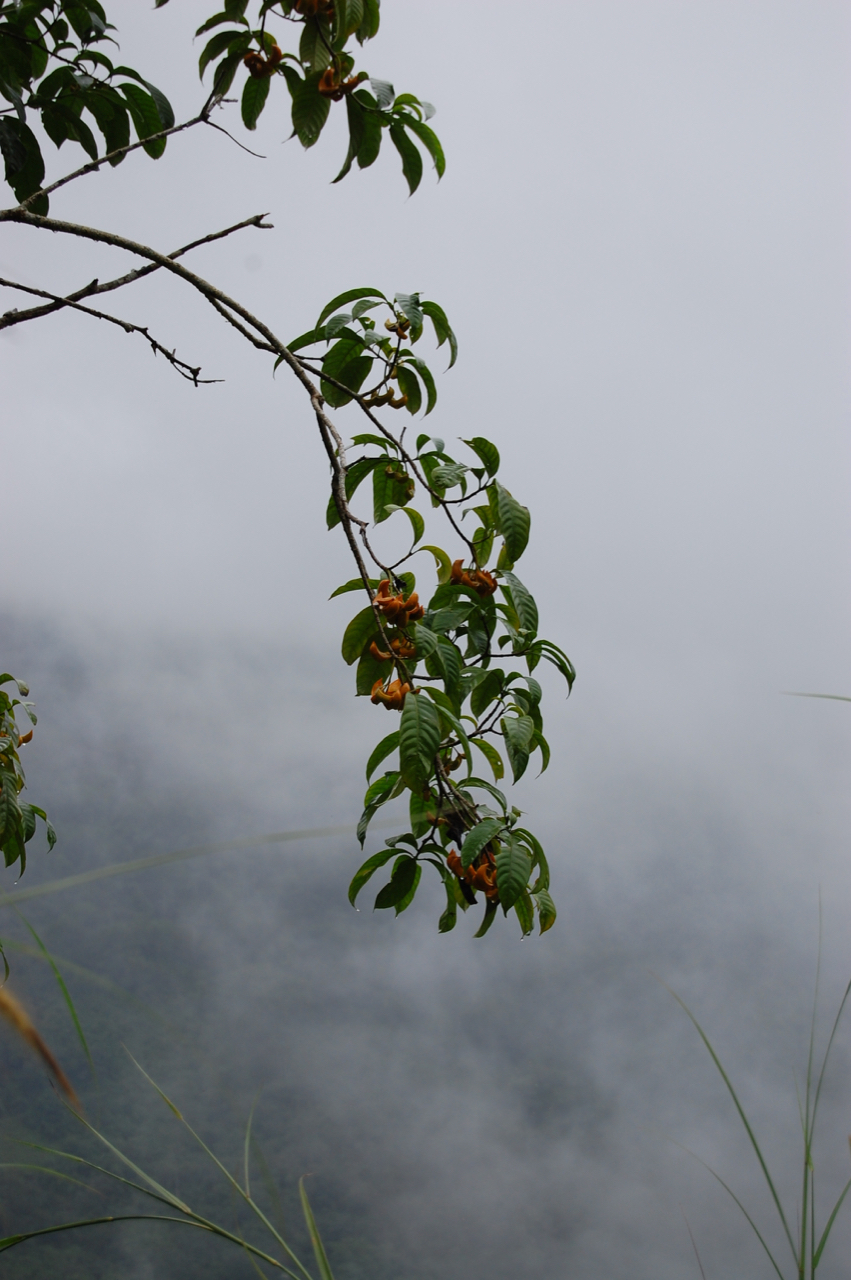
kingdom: Plantae
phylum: Tracheophyta
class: Magnoliopsida
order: Gentianales
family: Apocynaceae
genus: Tabernaemontana
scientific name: Tabernaemontana alternifolia
